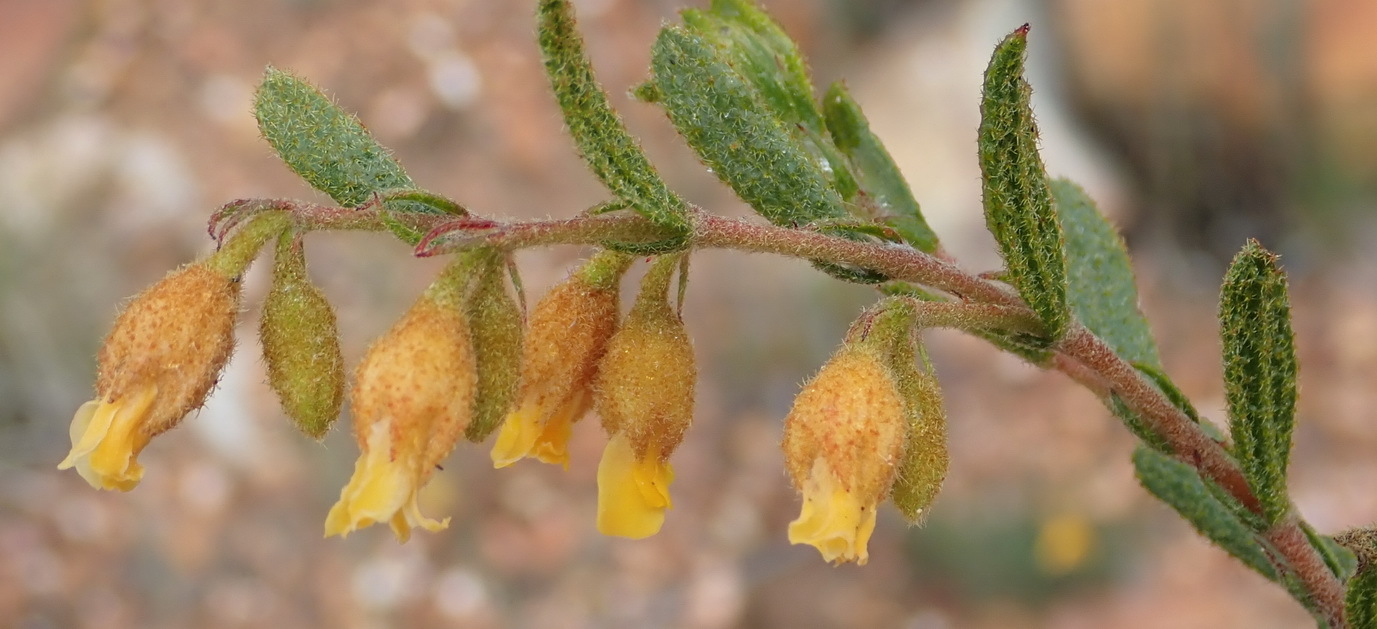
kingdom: Plantae
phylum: Tracheophyta
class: Magnoliopsida
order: Malvales
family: Malvaceae
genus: Hermannia
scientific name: Hermannia decipiens
